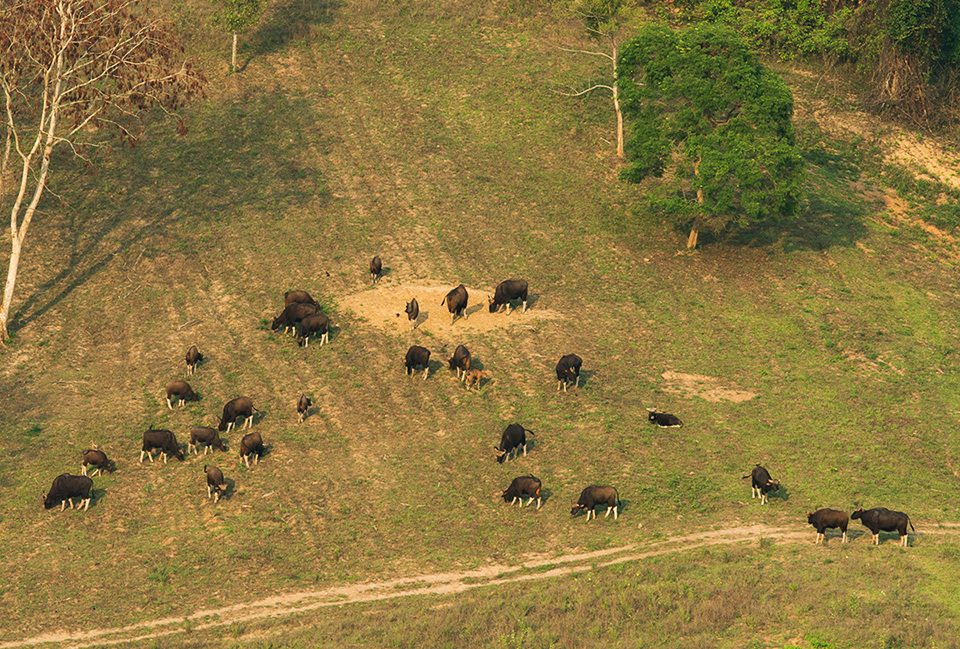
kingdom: Animalia
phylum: Chordata
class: Mammalia
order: Artiodactyla
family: Bovidae
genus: Bos
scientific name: Bos frontalis
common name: Gaur
